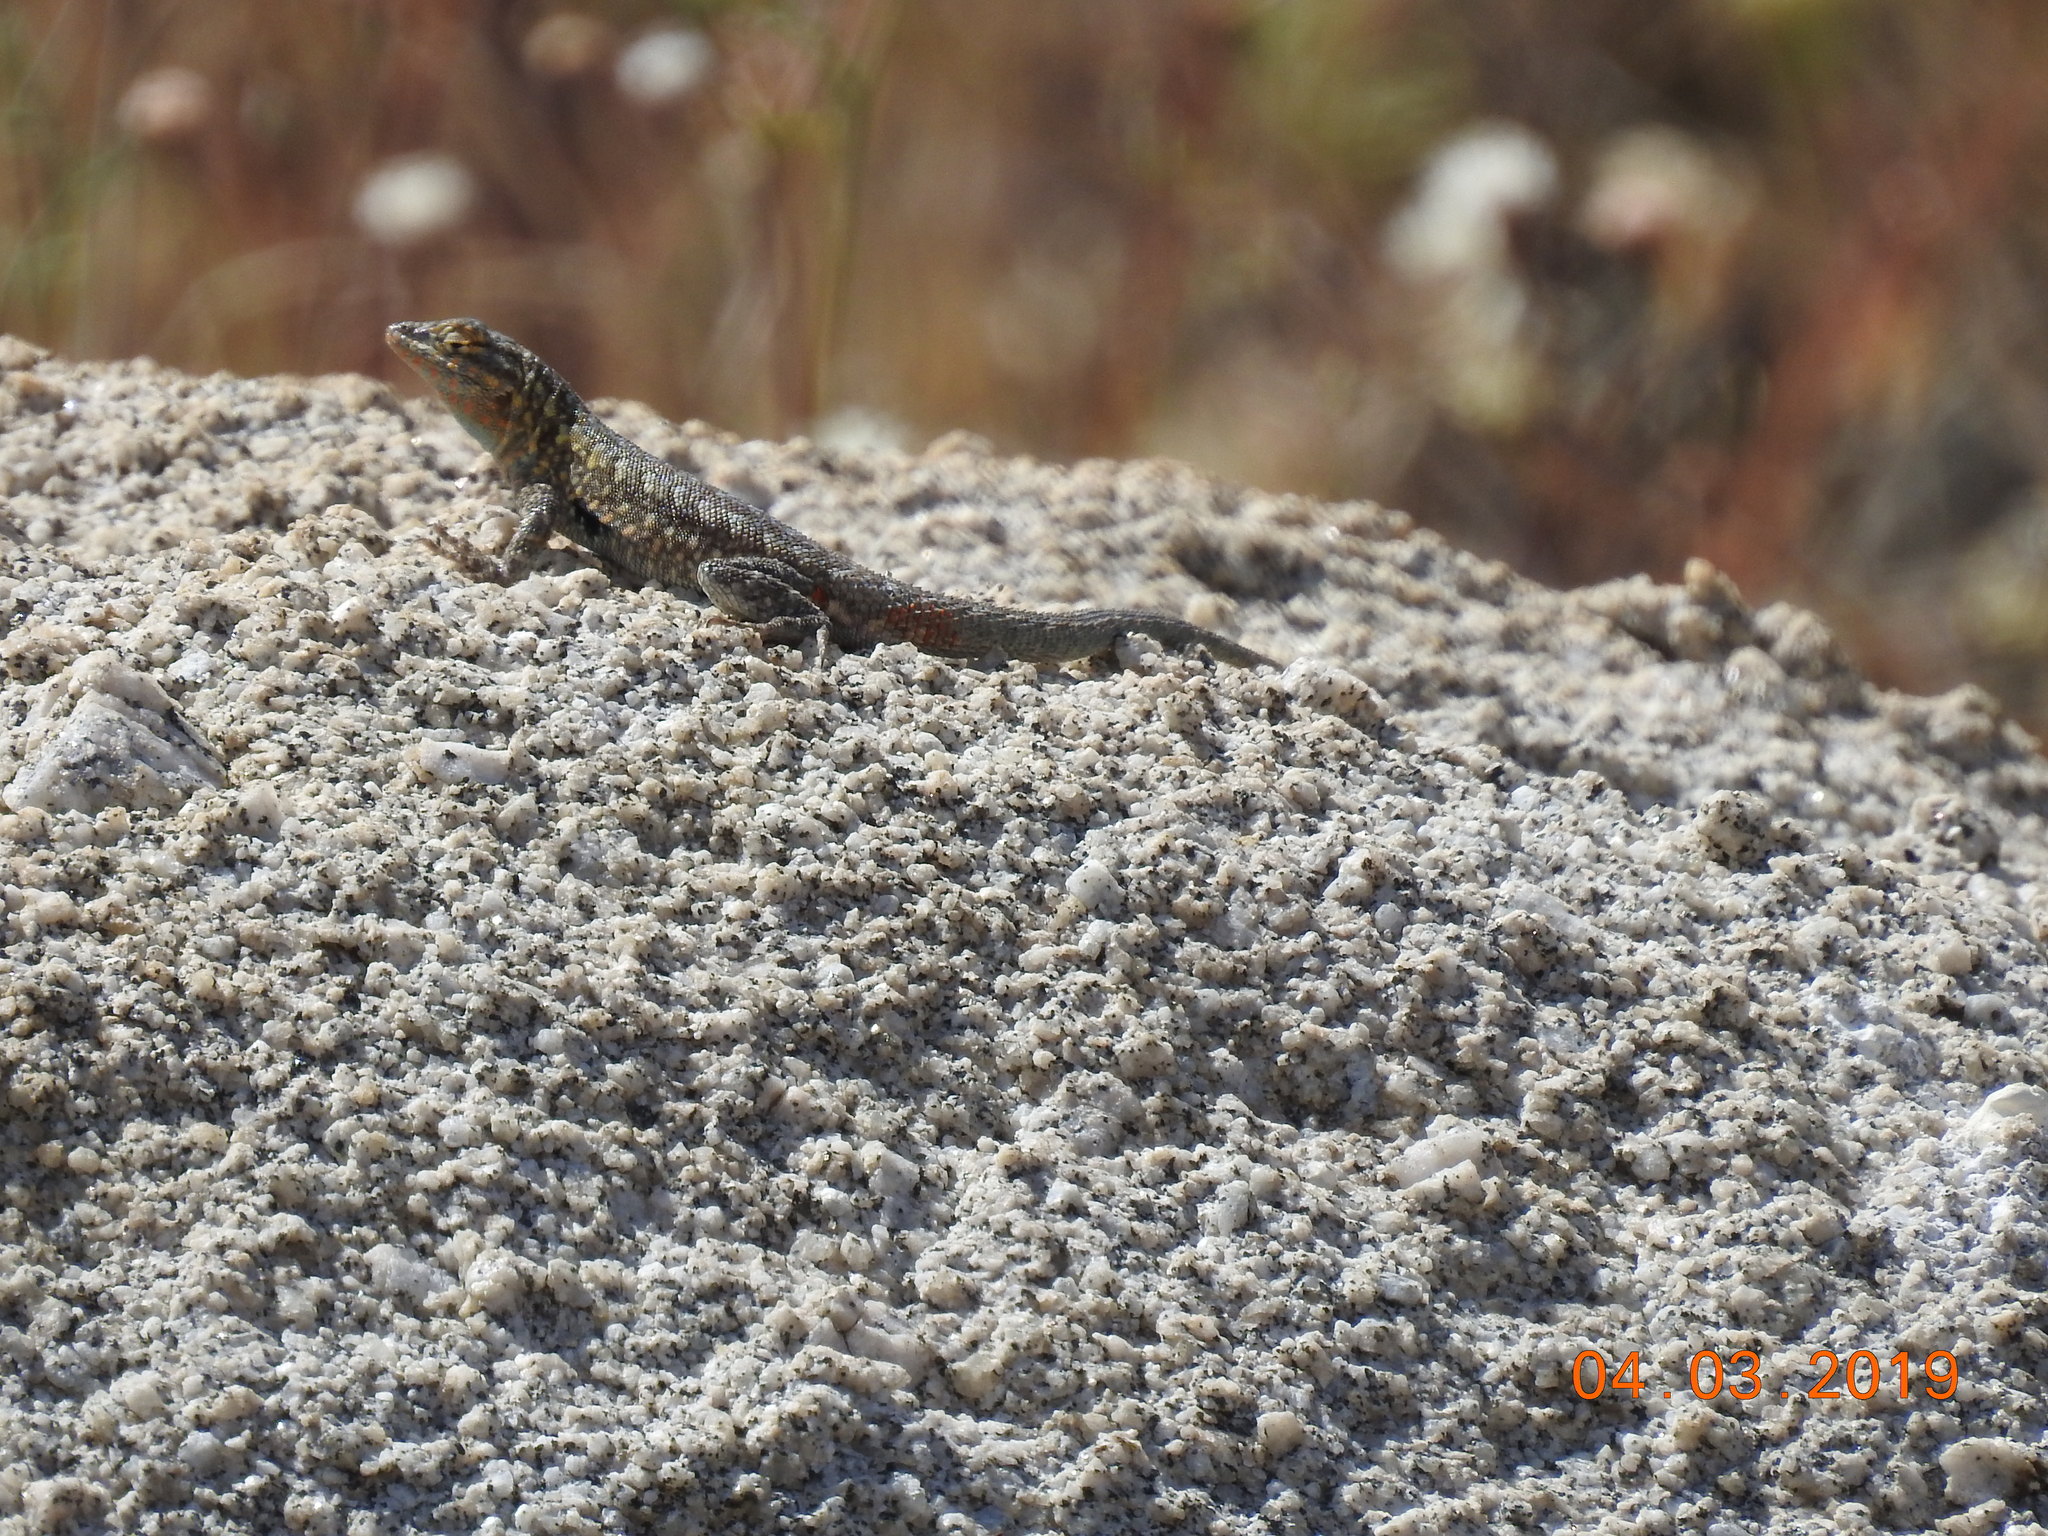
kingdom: Animalia
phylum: Chordata
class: Squamata
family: Phrynosomatidae
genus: Uta
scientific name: Uta stansburiana
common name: Side-blotched lizard
